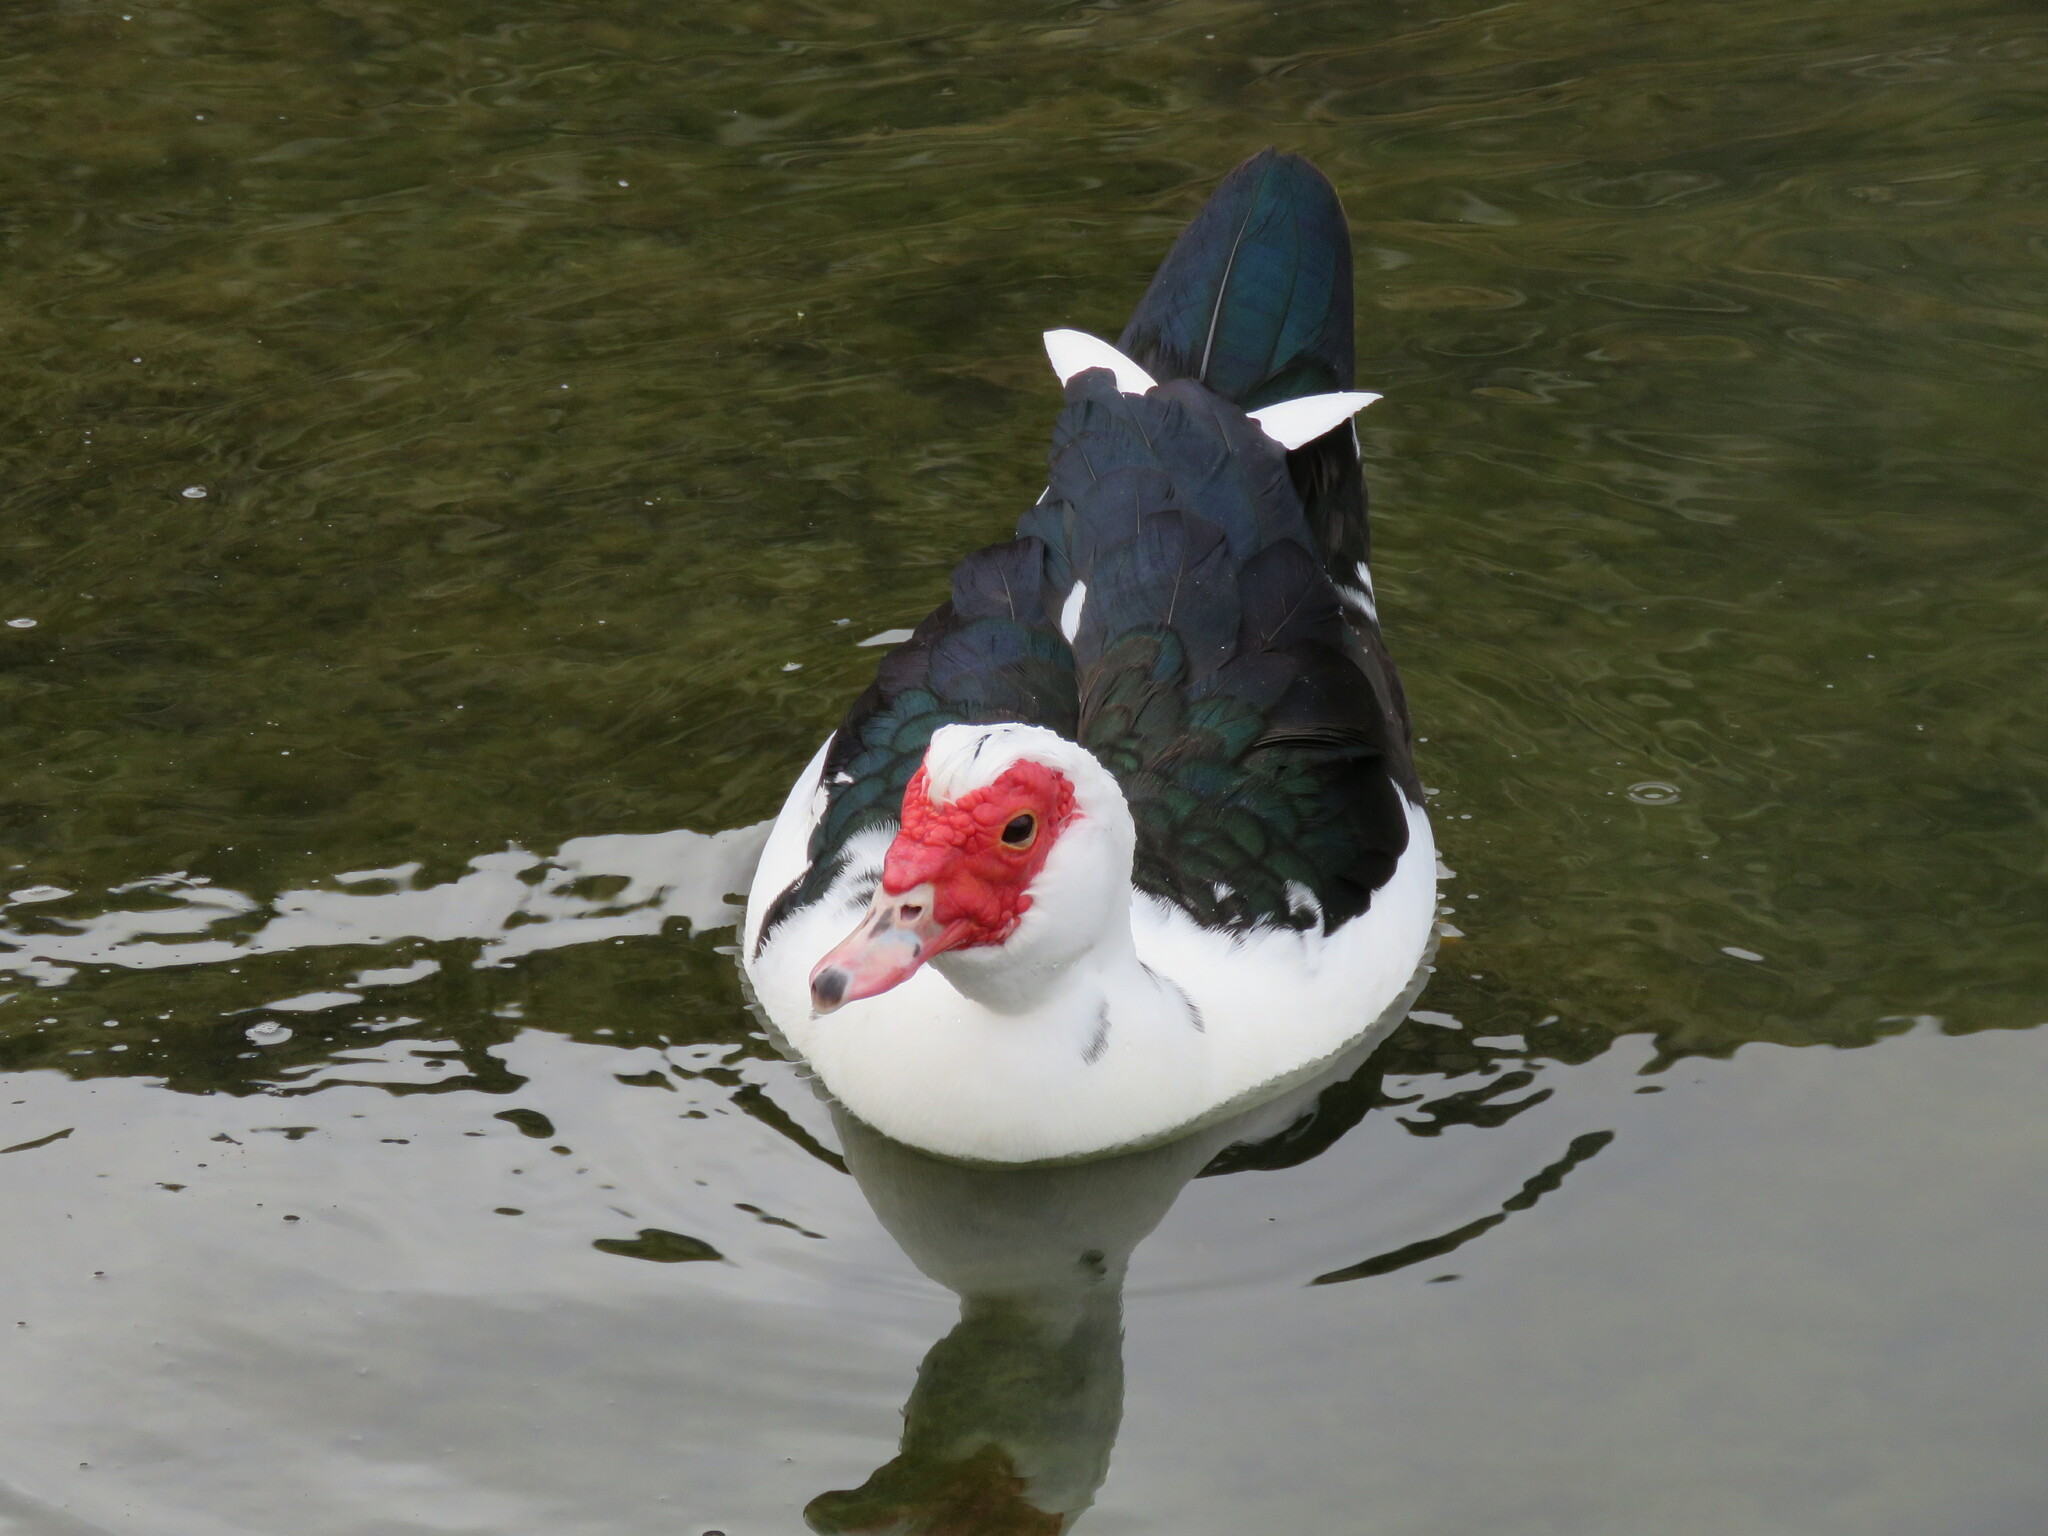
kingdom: Animalia
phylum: Chordata
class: Aves
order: Anseriformes
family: Anatidae
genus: Cairina
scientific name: Cairina moschata
